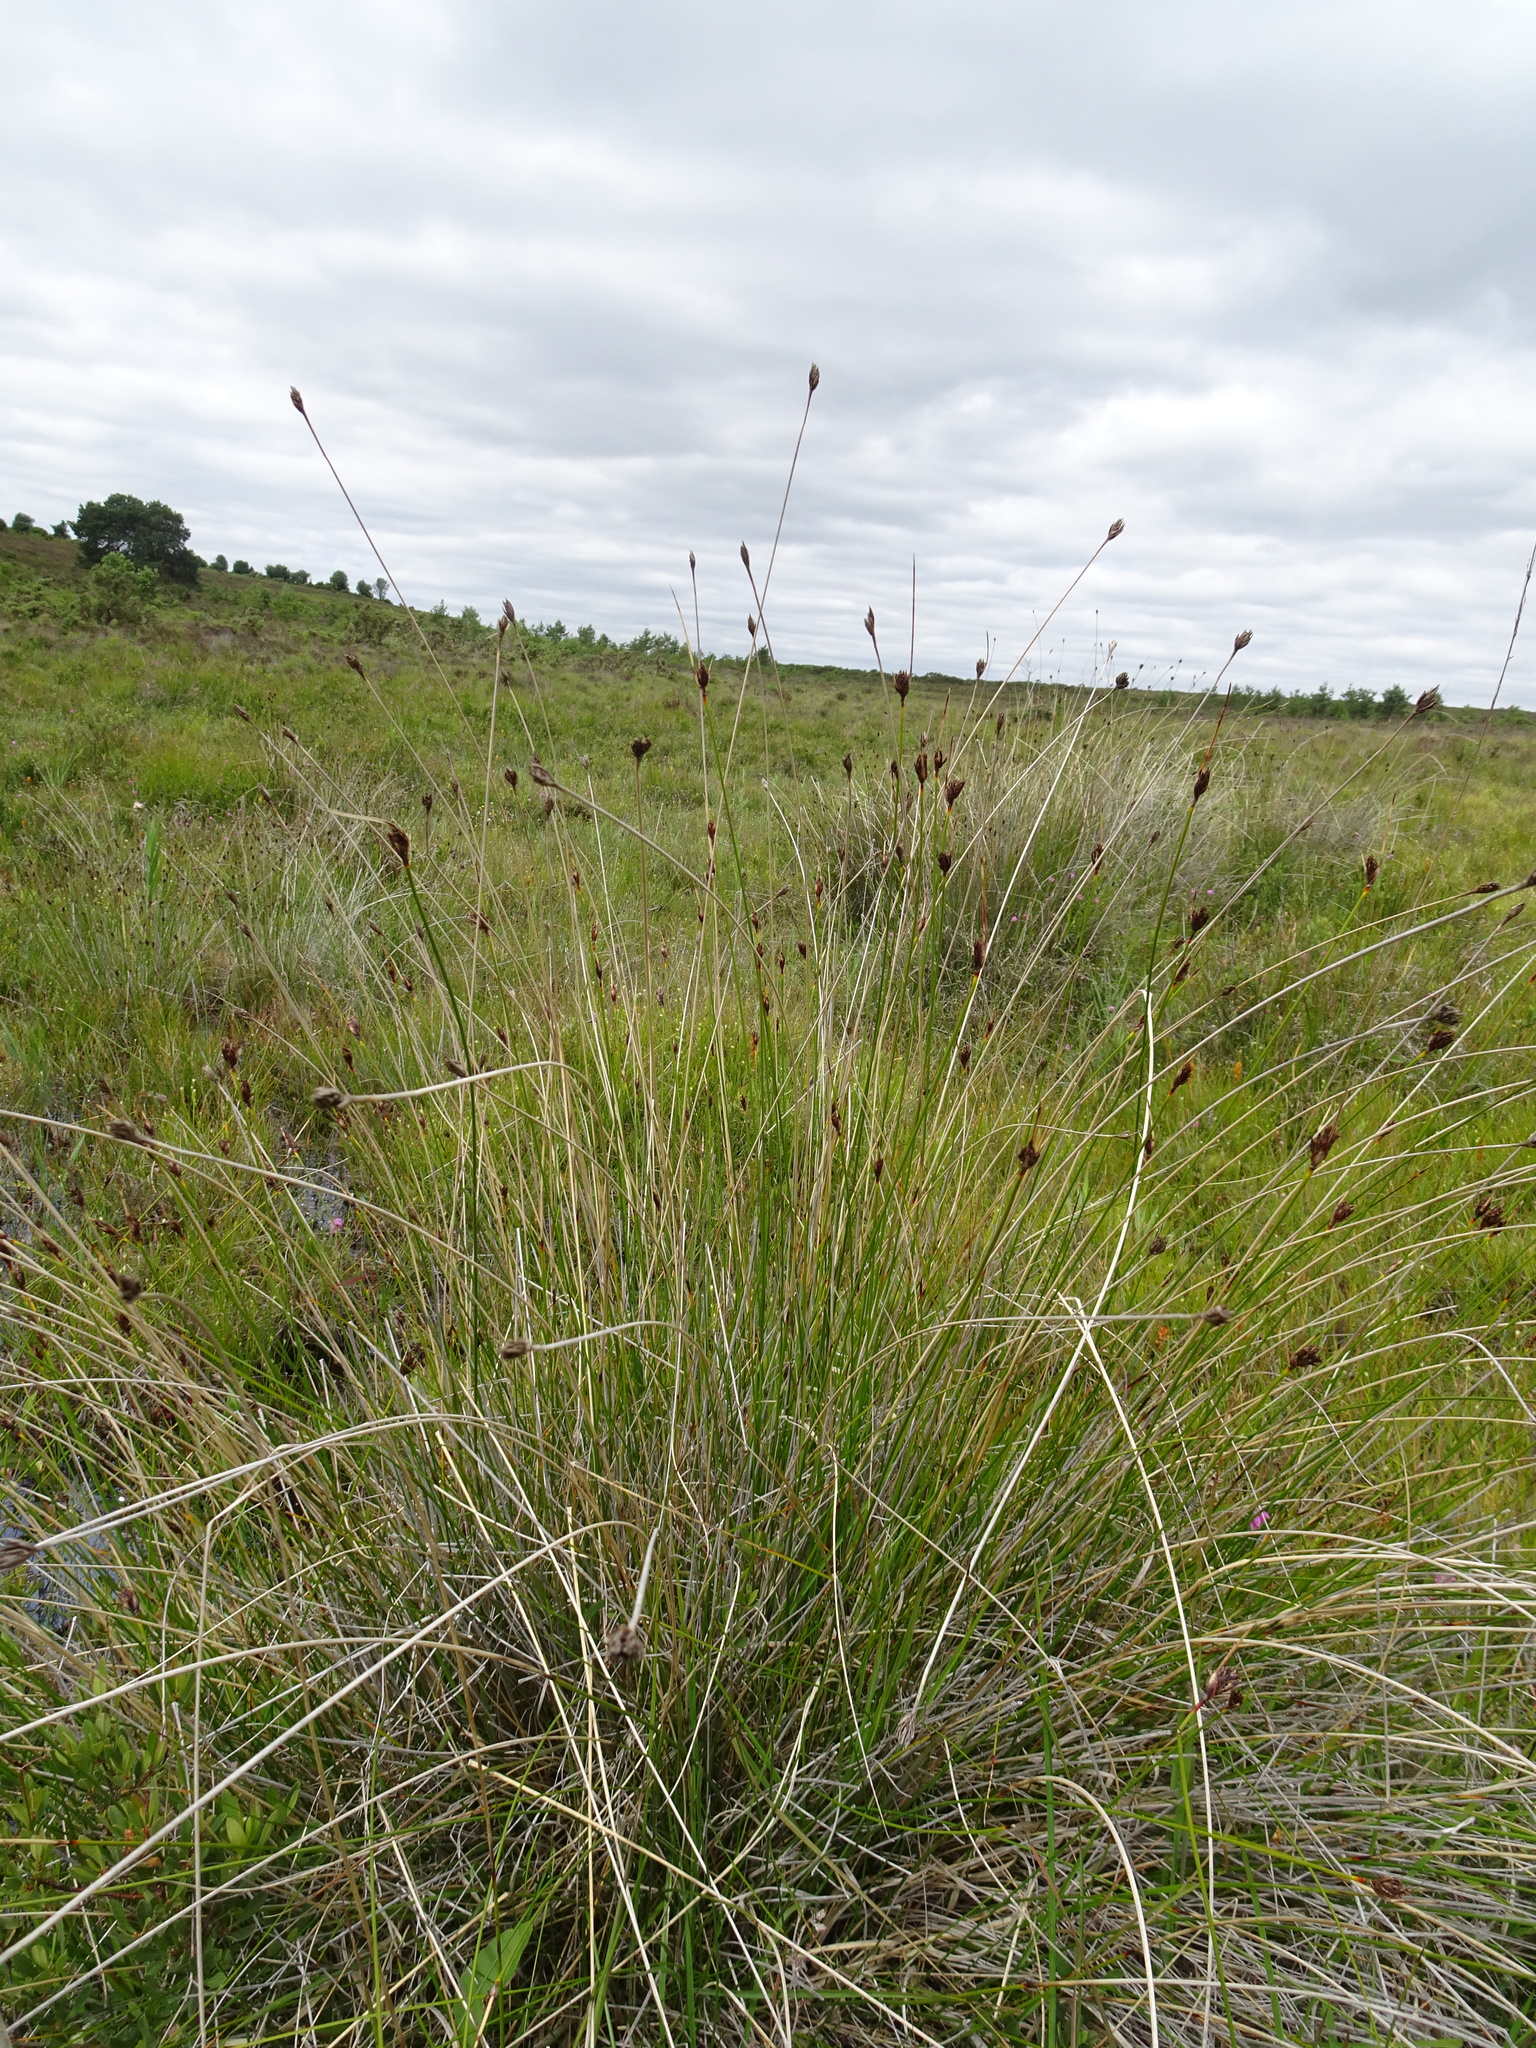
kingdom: Plantae
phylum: Tracheophyta
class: Liliopsida
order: Poales
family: Cyperaceae
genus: Schoenus
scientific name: Schoenus nigricans
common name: Black bog-rush
